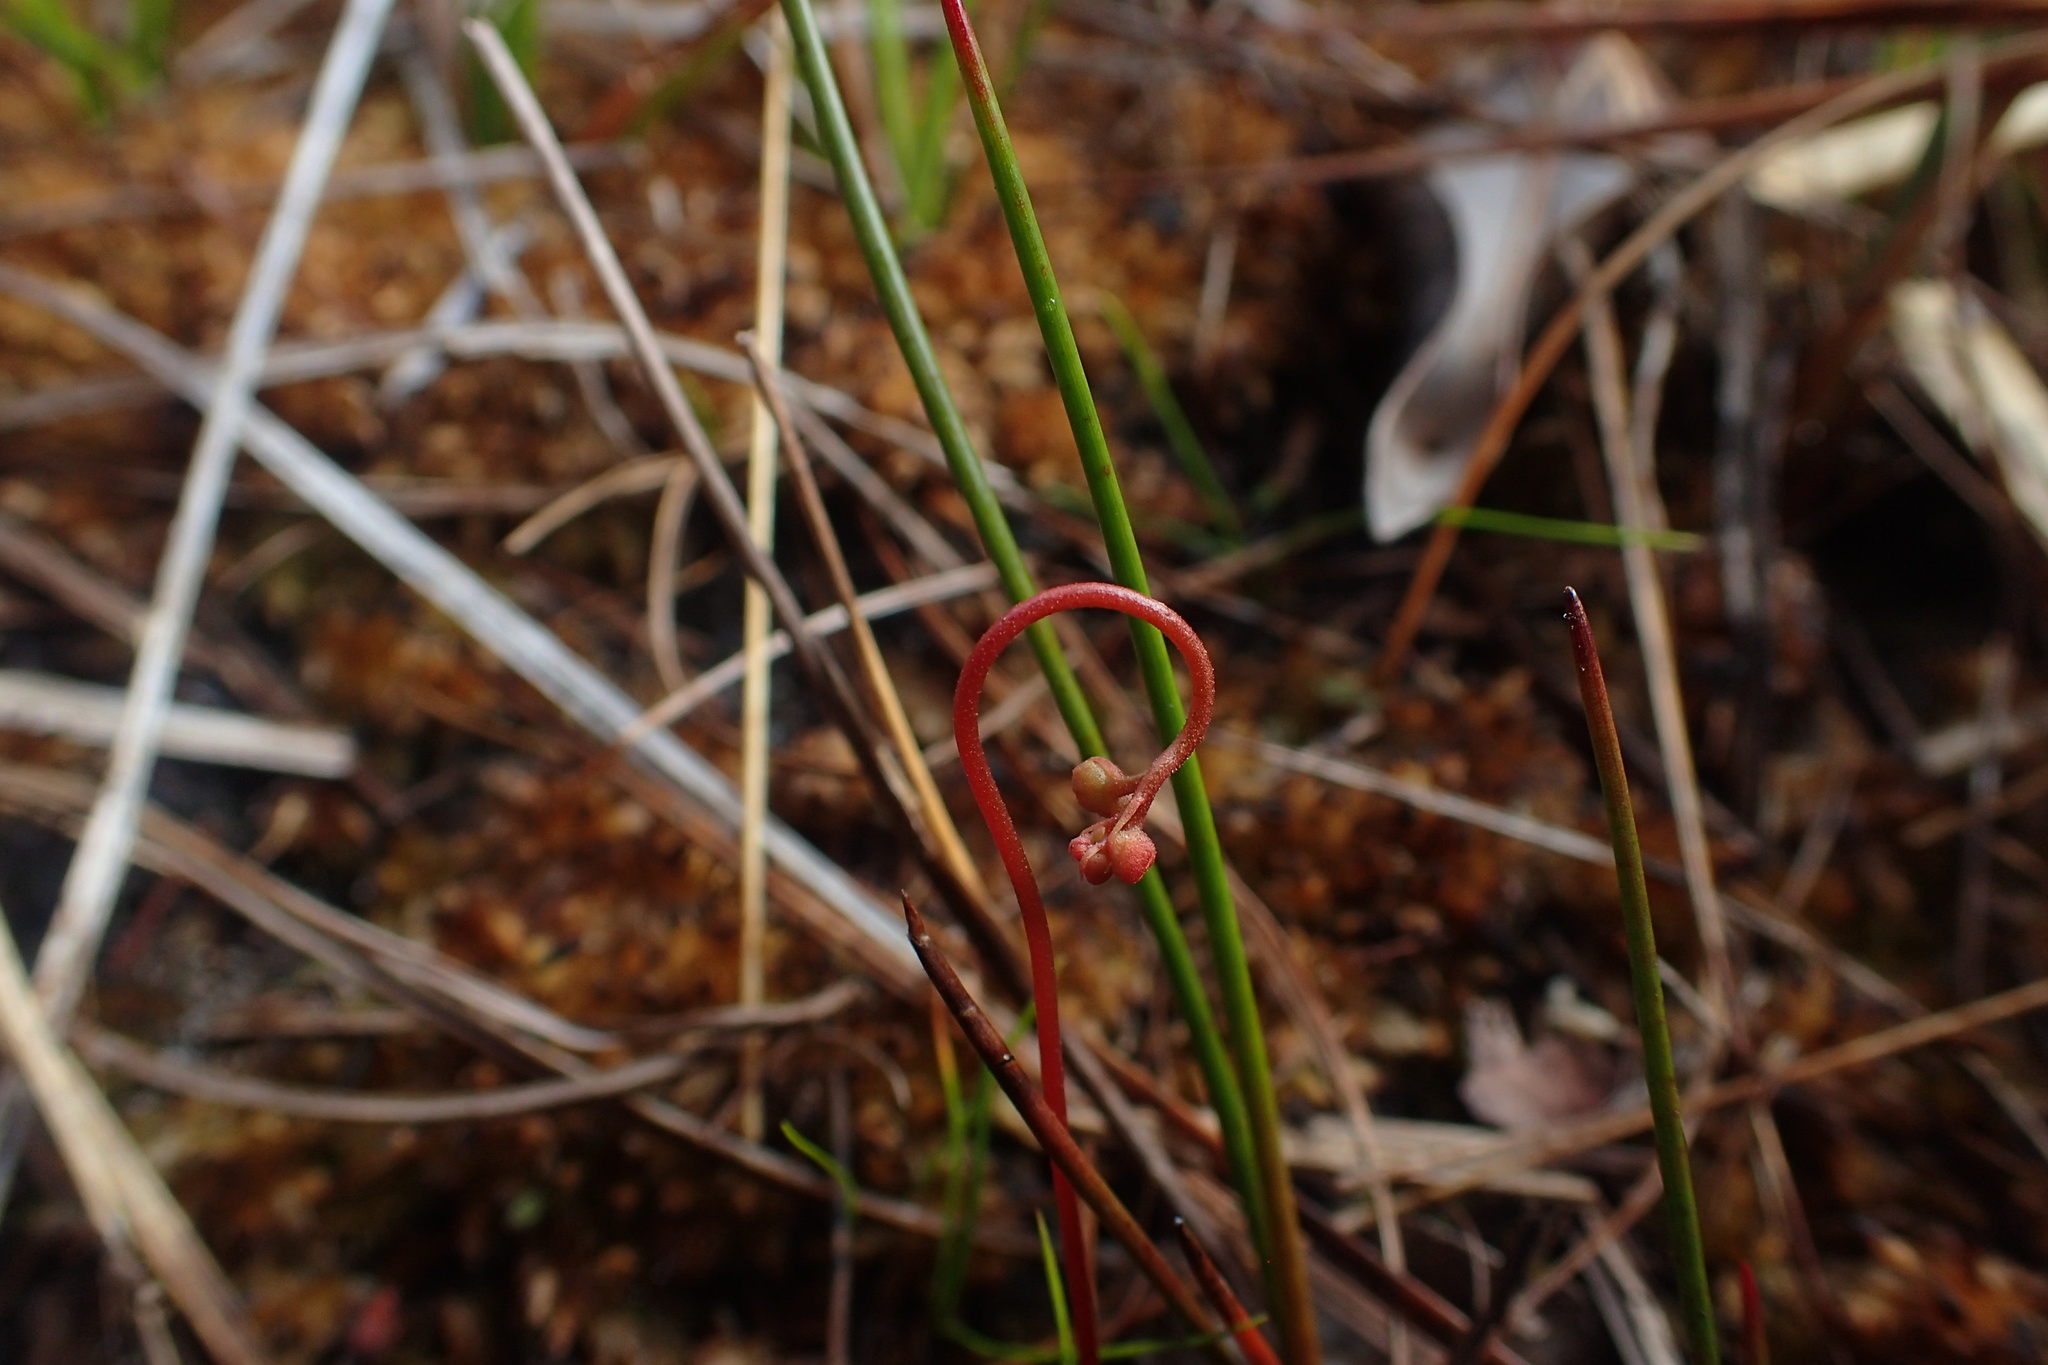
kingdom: Plantae
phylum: Tracheophyta
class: Magnoliopsida
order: Caryophyllales
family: Droseraceae
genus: Drosera
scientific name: Drosera capillaris
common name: Pink sundew
